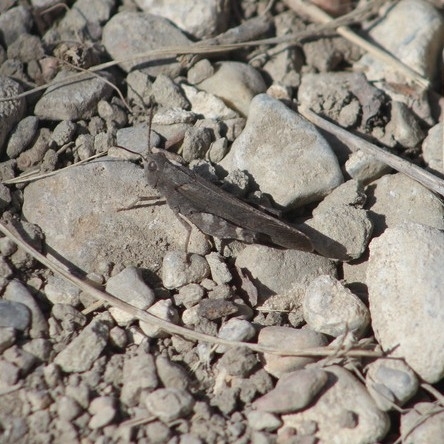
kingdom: Animalia
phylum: Arthropoda
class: Insecta
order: Orthoptera
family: Acrididae
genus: Arphia
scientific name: Arphia conspersa
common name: Speckle-winged rangeland grasshopper
